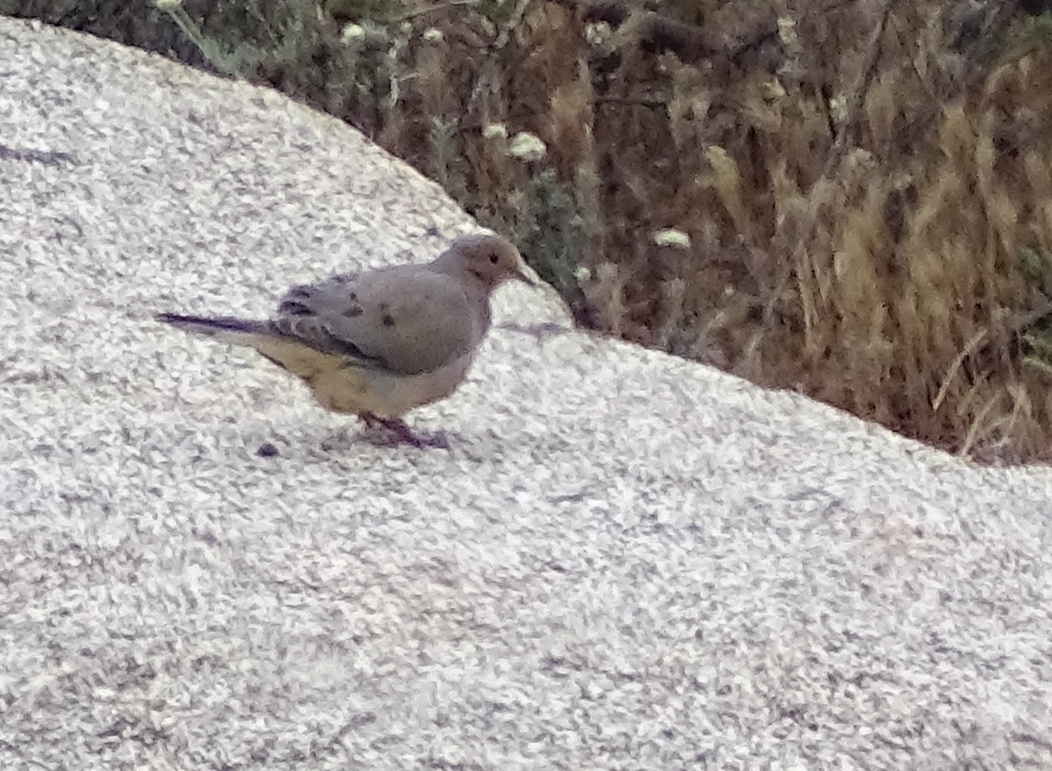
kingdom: Animalia
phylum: Chordata
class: Aves
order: Columbiformes
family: Columbidae
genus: Zenaida
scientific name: Zenaida macroura
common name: Mourning dove
